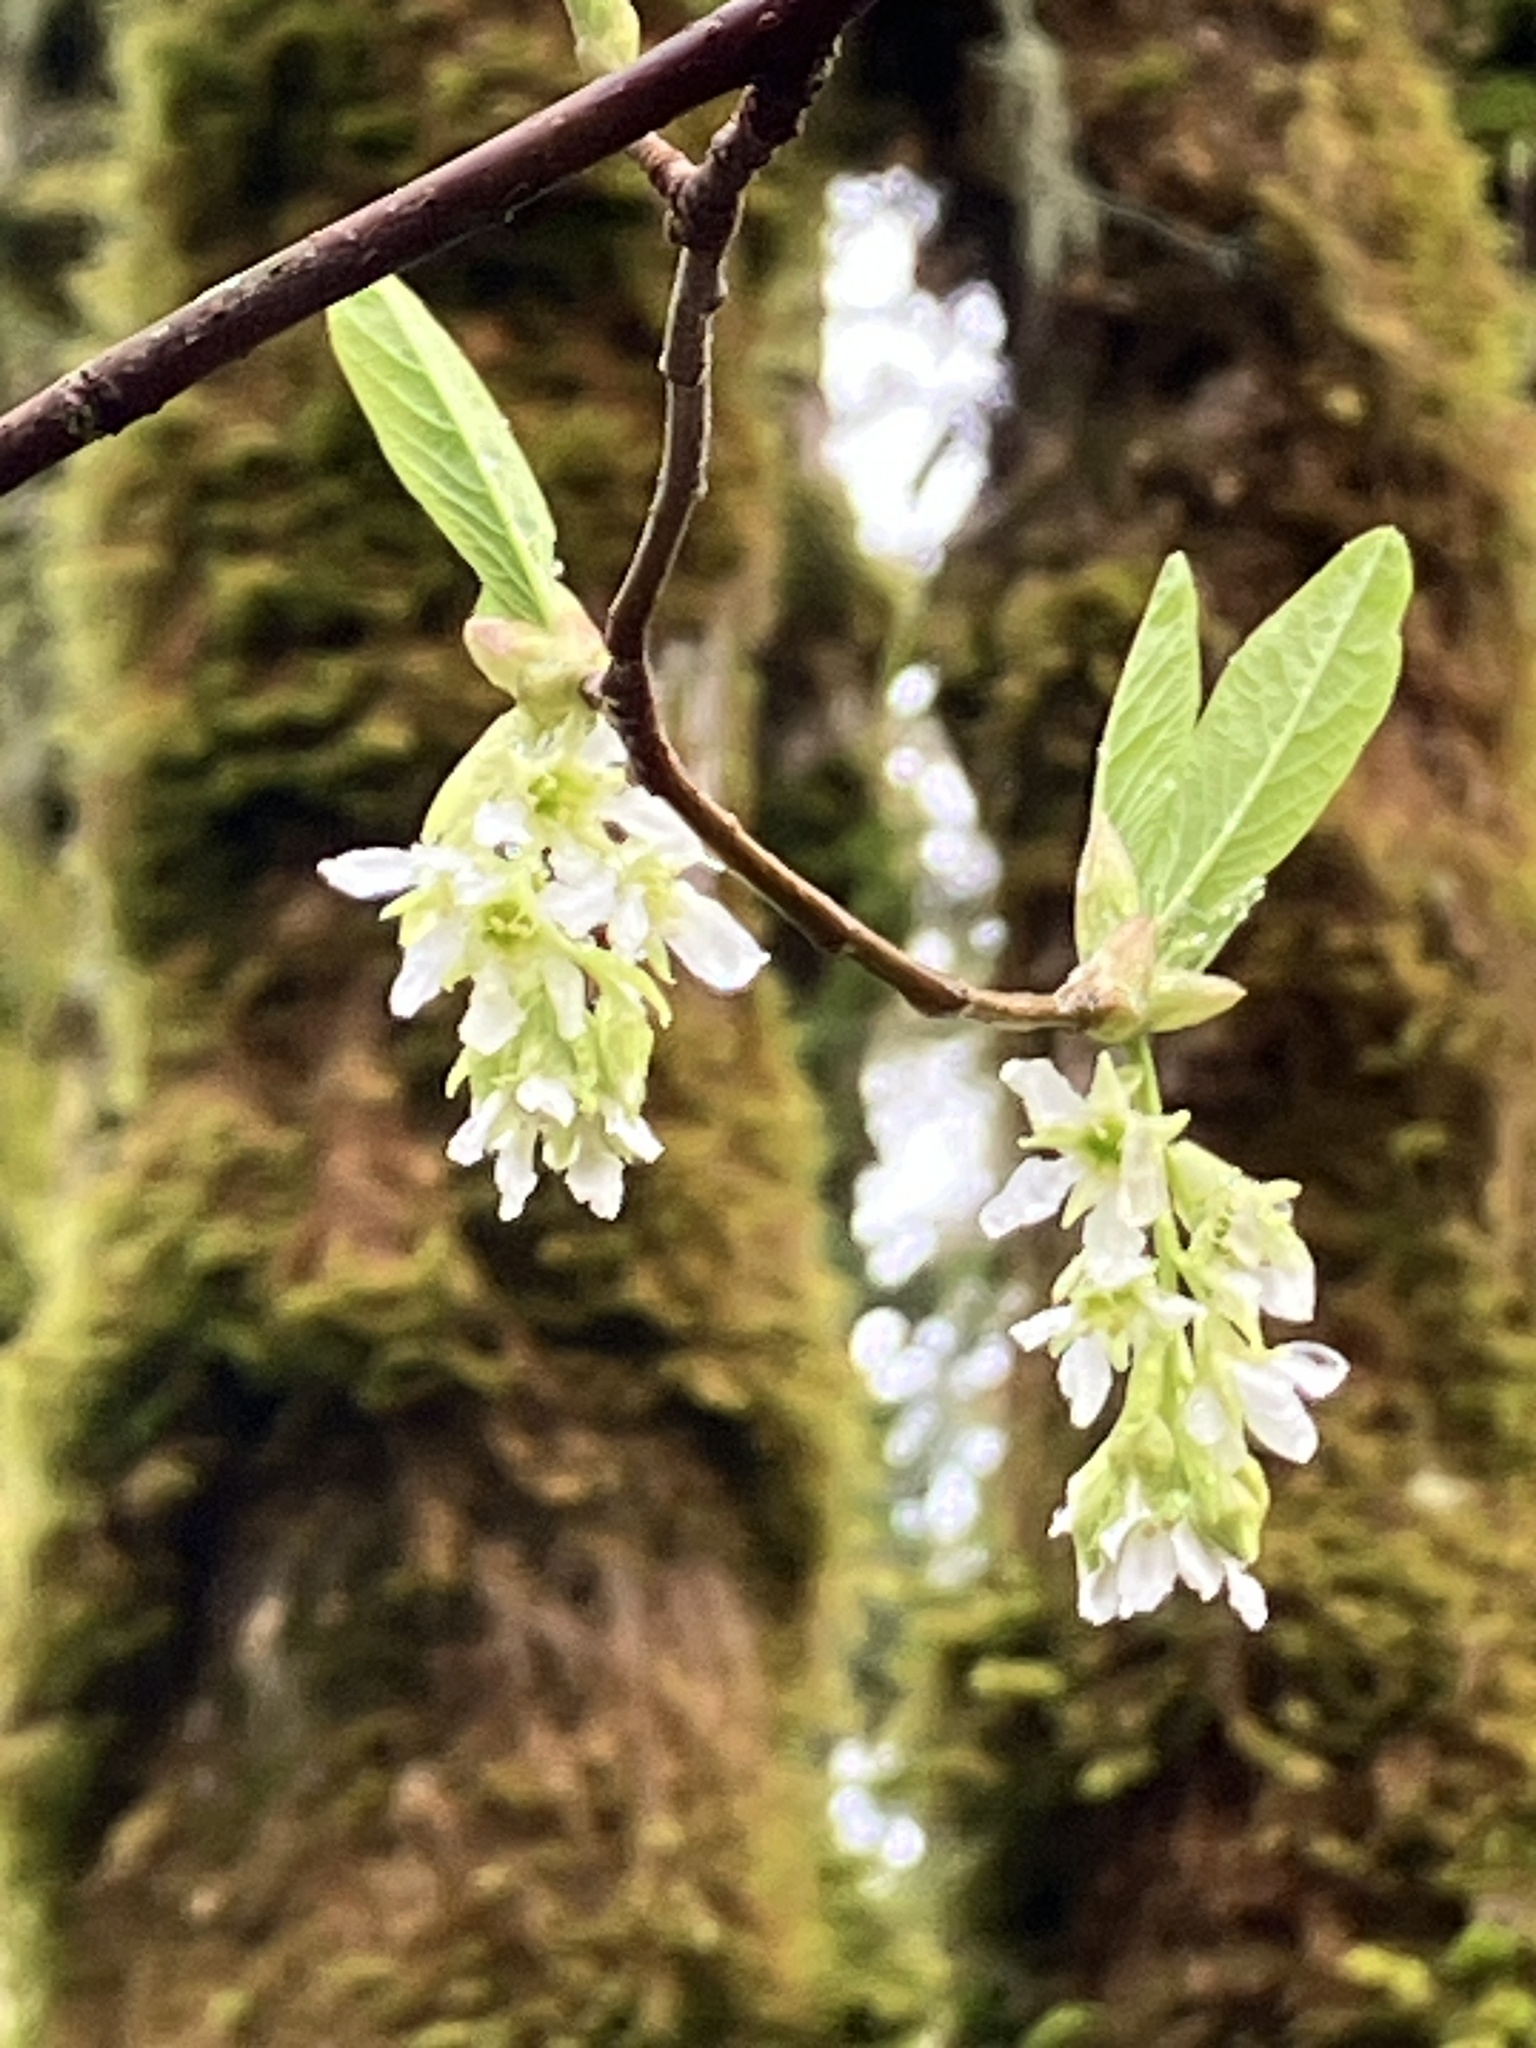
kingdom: Plantae
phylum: Tracheophyta
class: Magnoliopsida
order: Rosales
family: Rosaceae
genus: Oemleria
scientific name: Oemleria cerasiformis
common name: Osoberry
